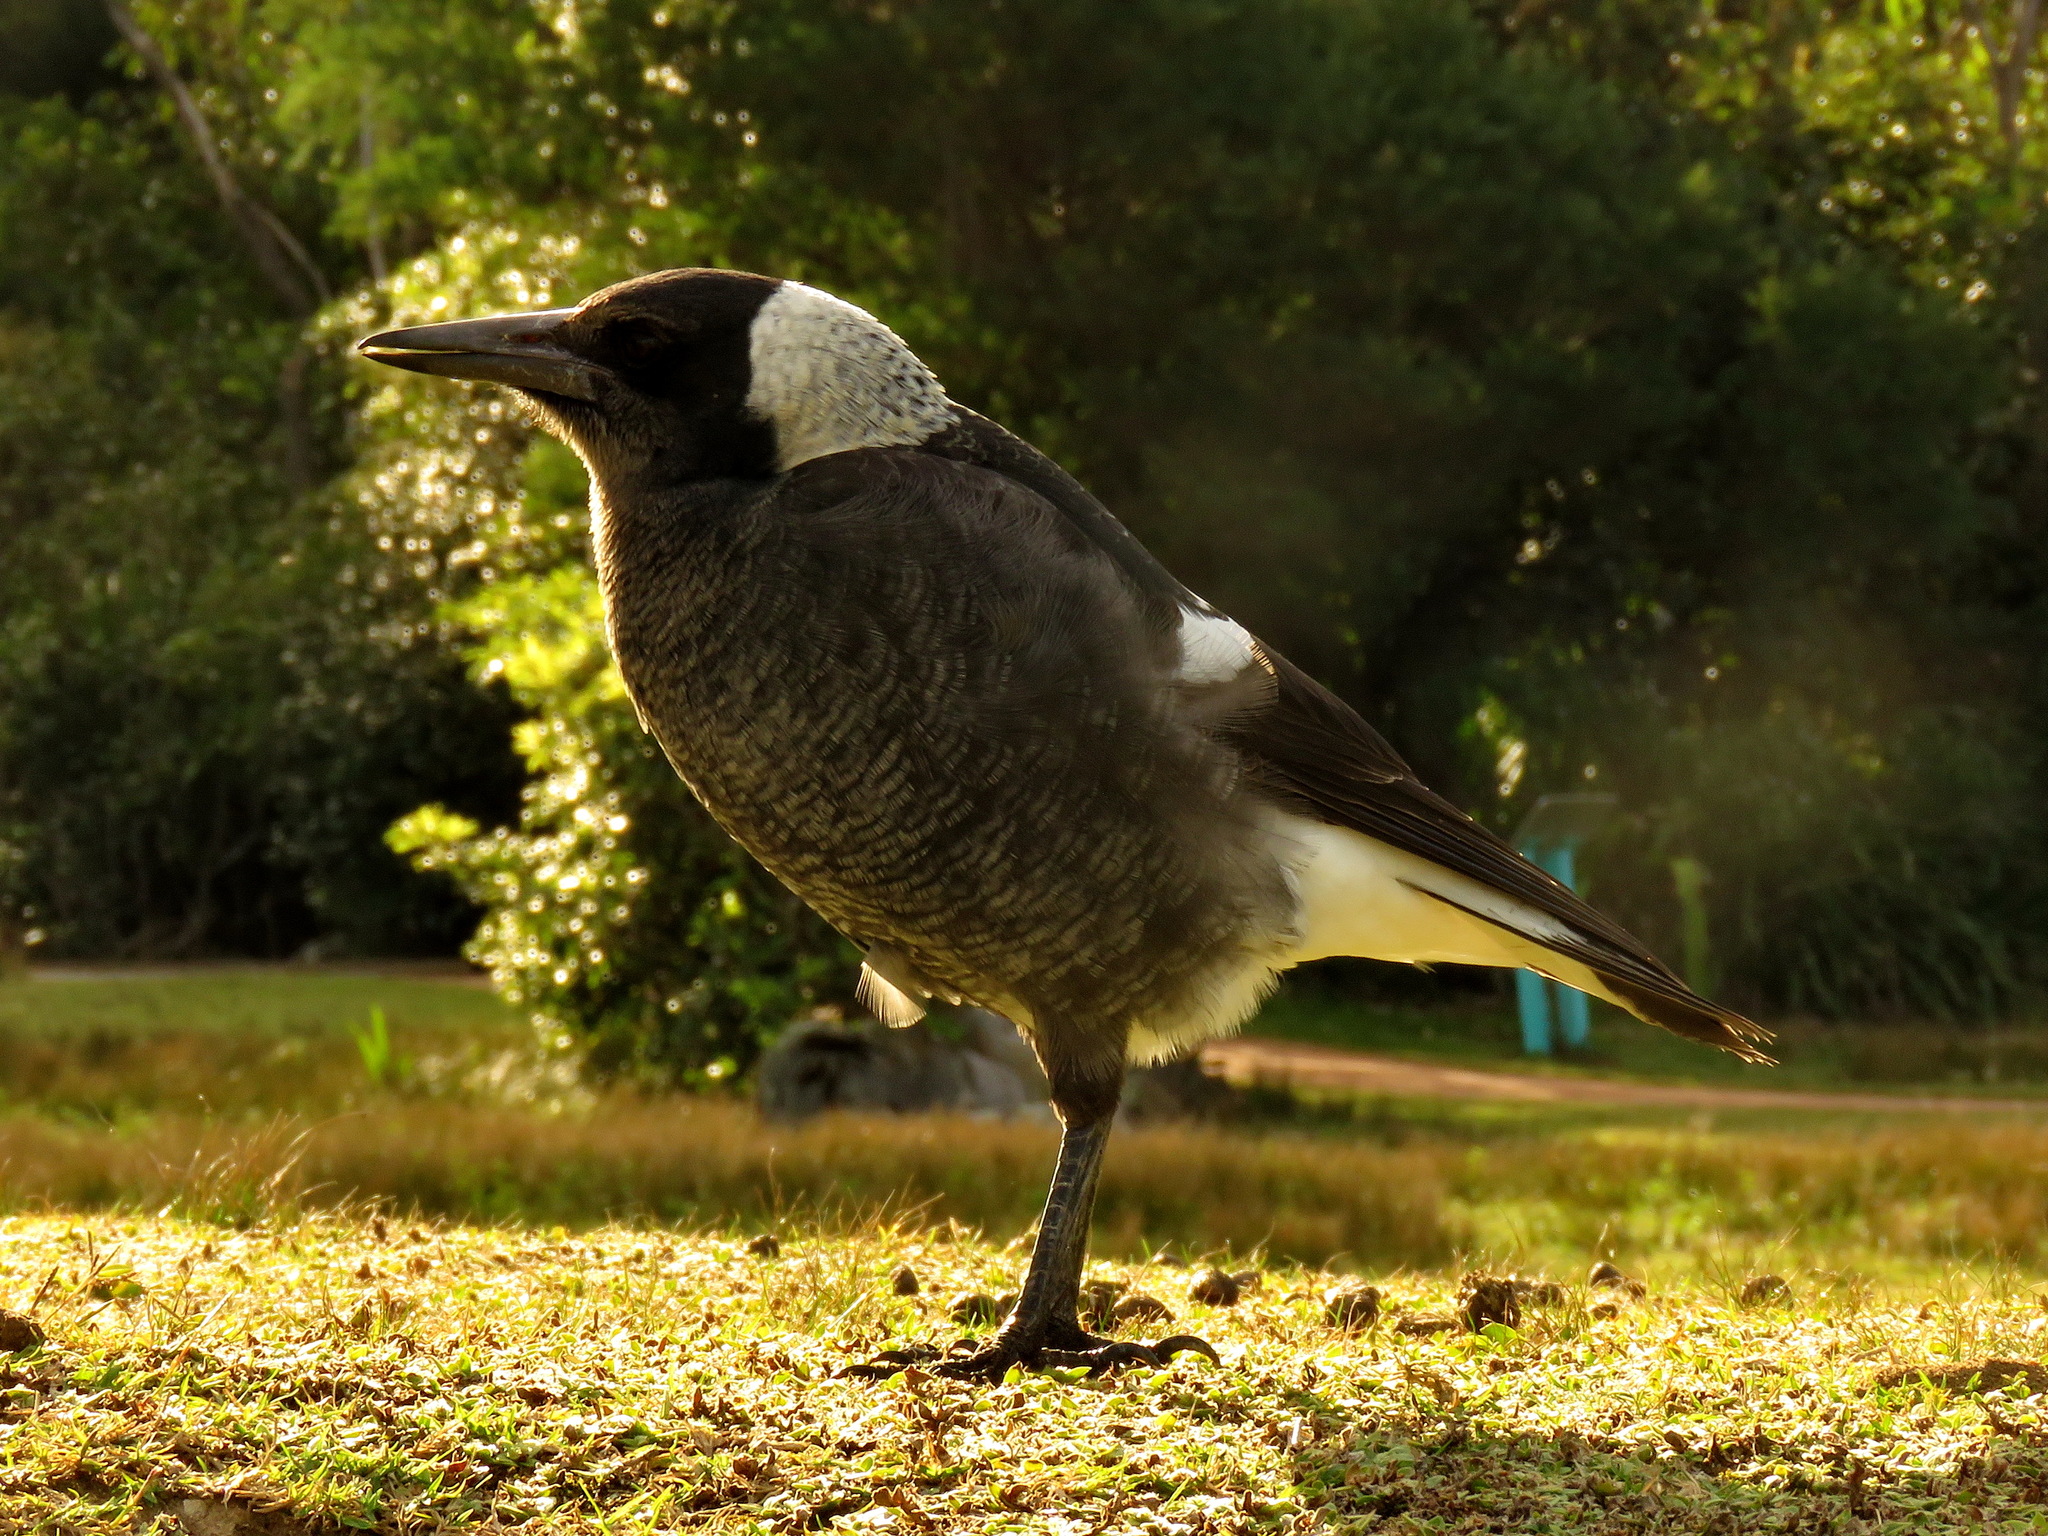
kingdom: Animalia
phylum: Chordata
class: Aves
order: Passeriformes
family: Cracticidae
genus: Gymnorhina
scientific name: Gymnorhina tibicen
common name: Australian magpie
